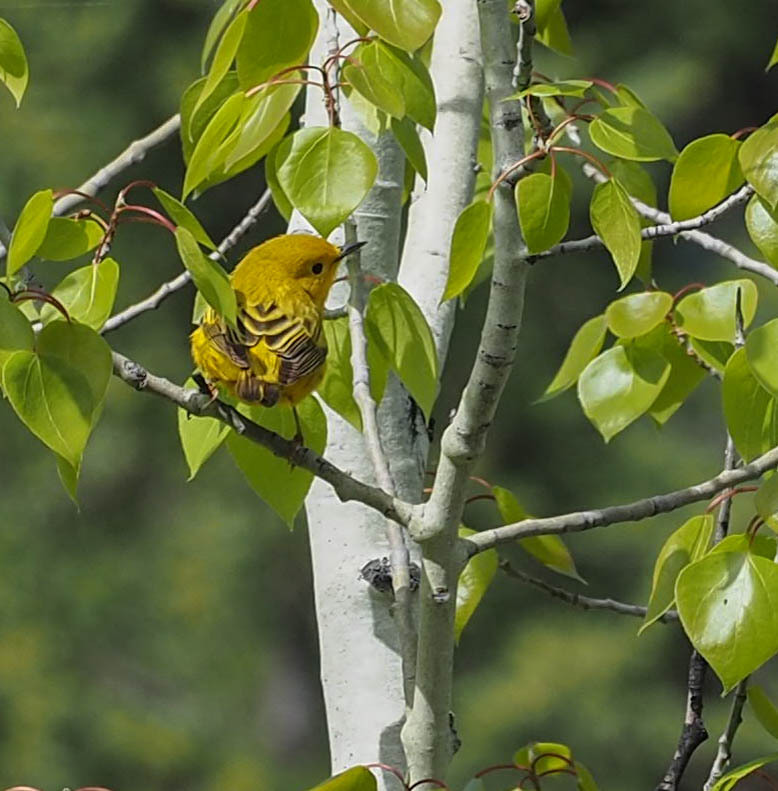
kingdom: Animalia
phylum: Chordata
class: Aves
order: Passeriformes
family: Parulidae
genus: Setophaga
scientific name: Setophaga petechia
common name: Yellow warbler
